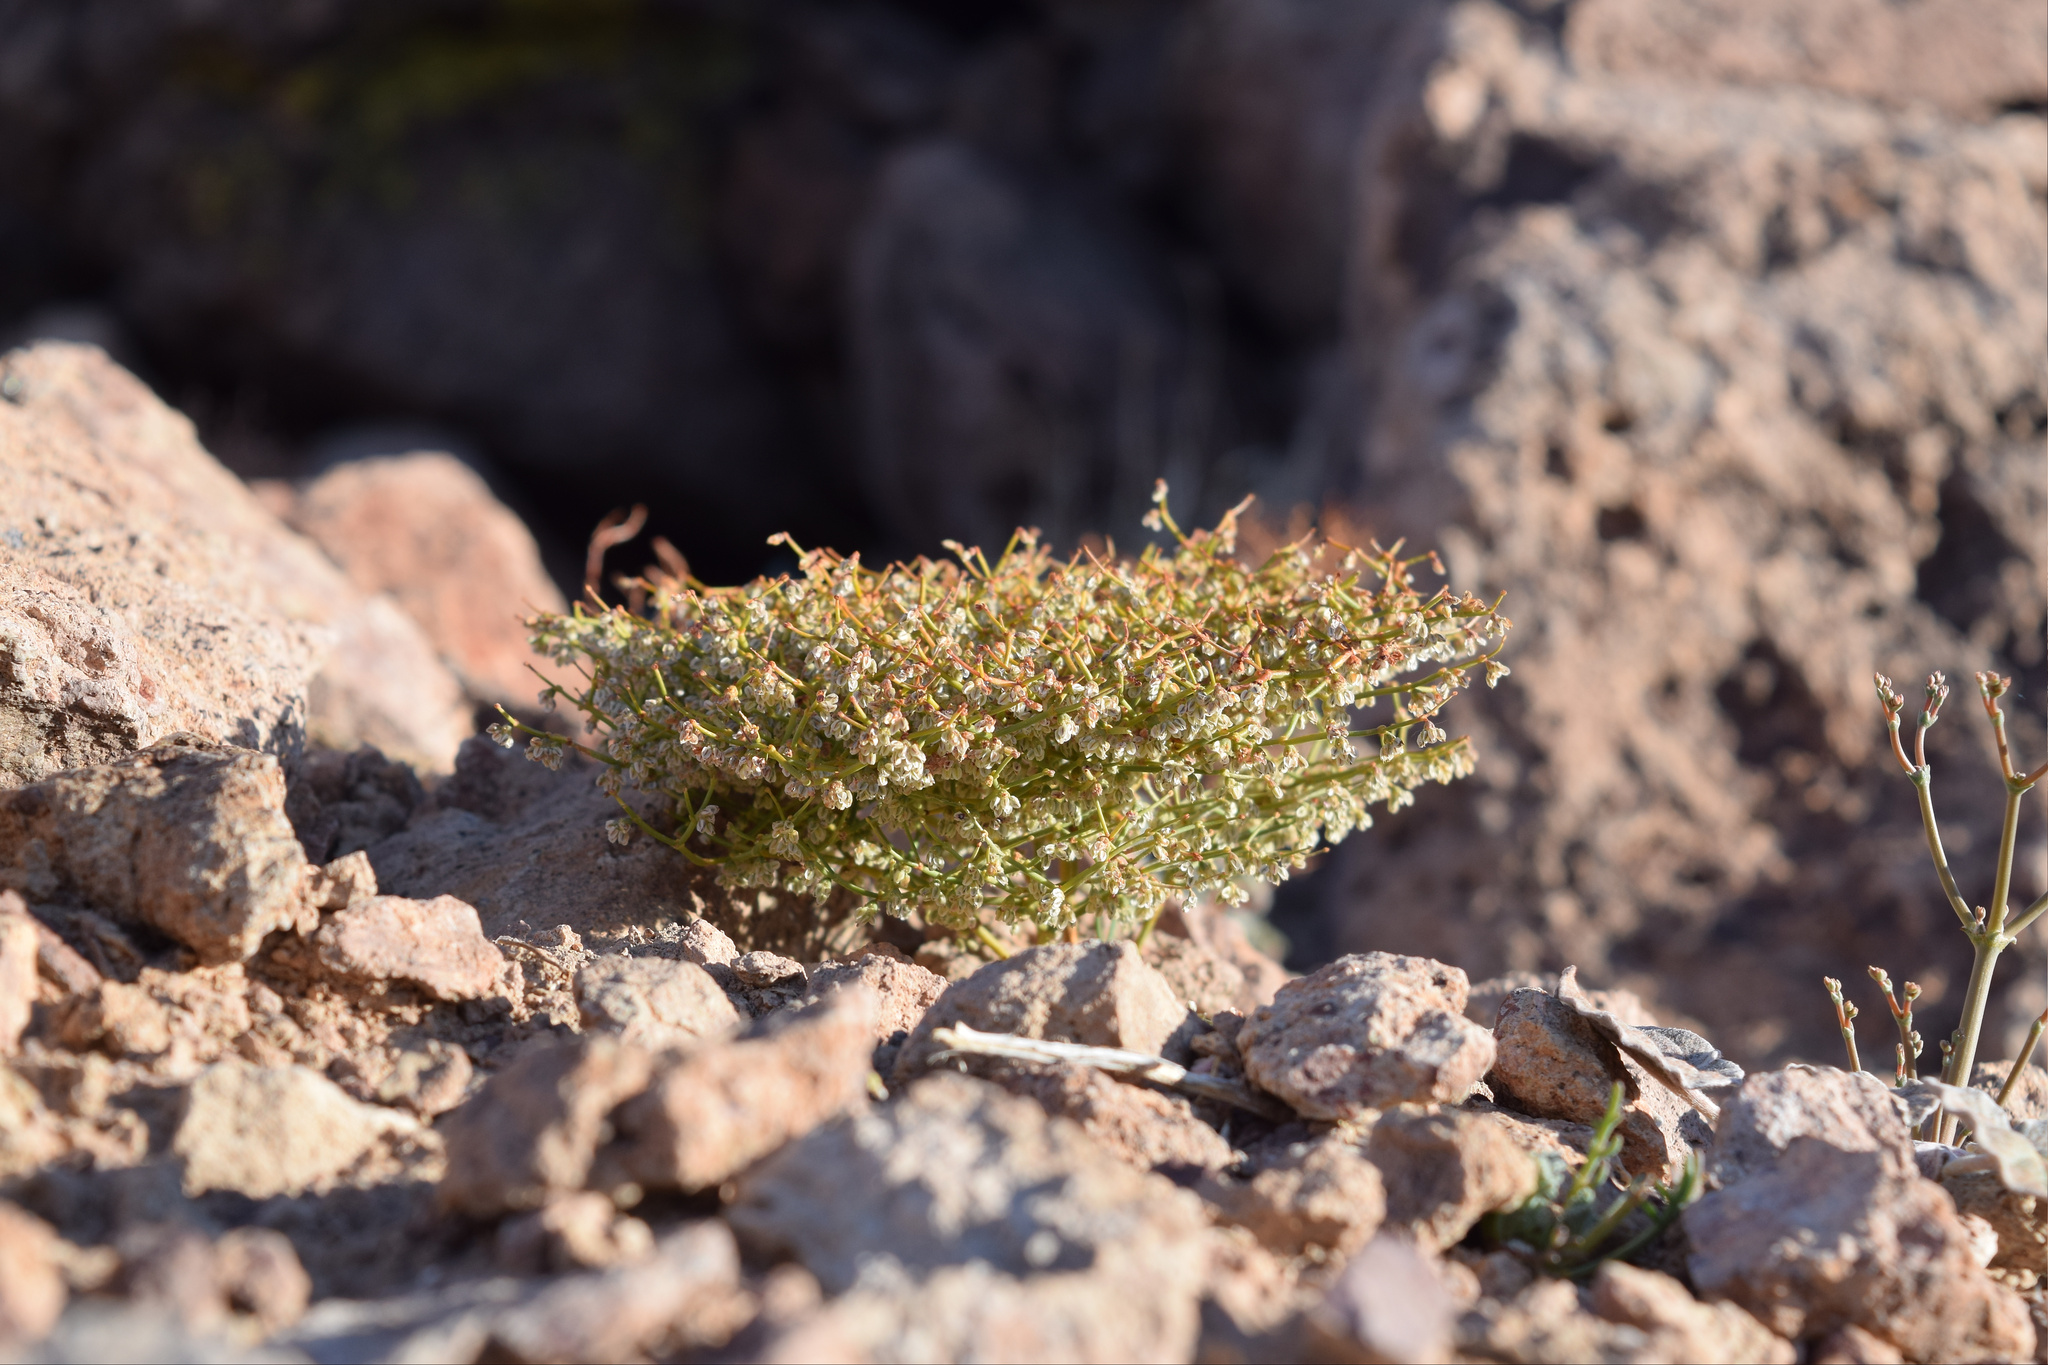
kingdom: Plantae
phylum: Tracheophyta
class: Magnoliopsida
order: Caryophyllales
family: Polygonaceae
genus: Eriogonum
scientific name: Eriogonum rixfordii
